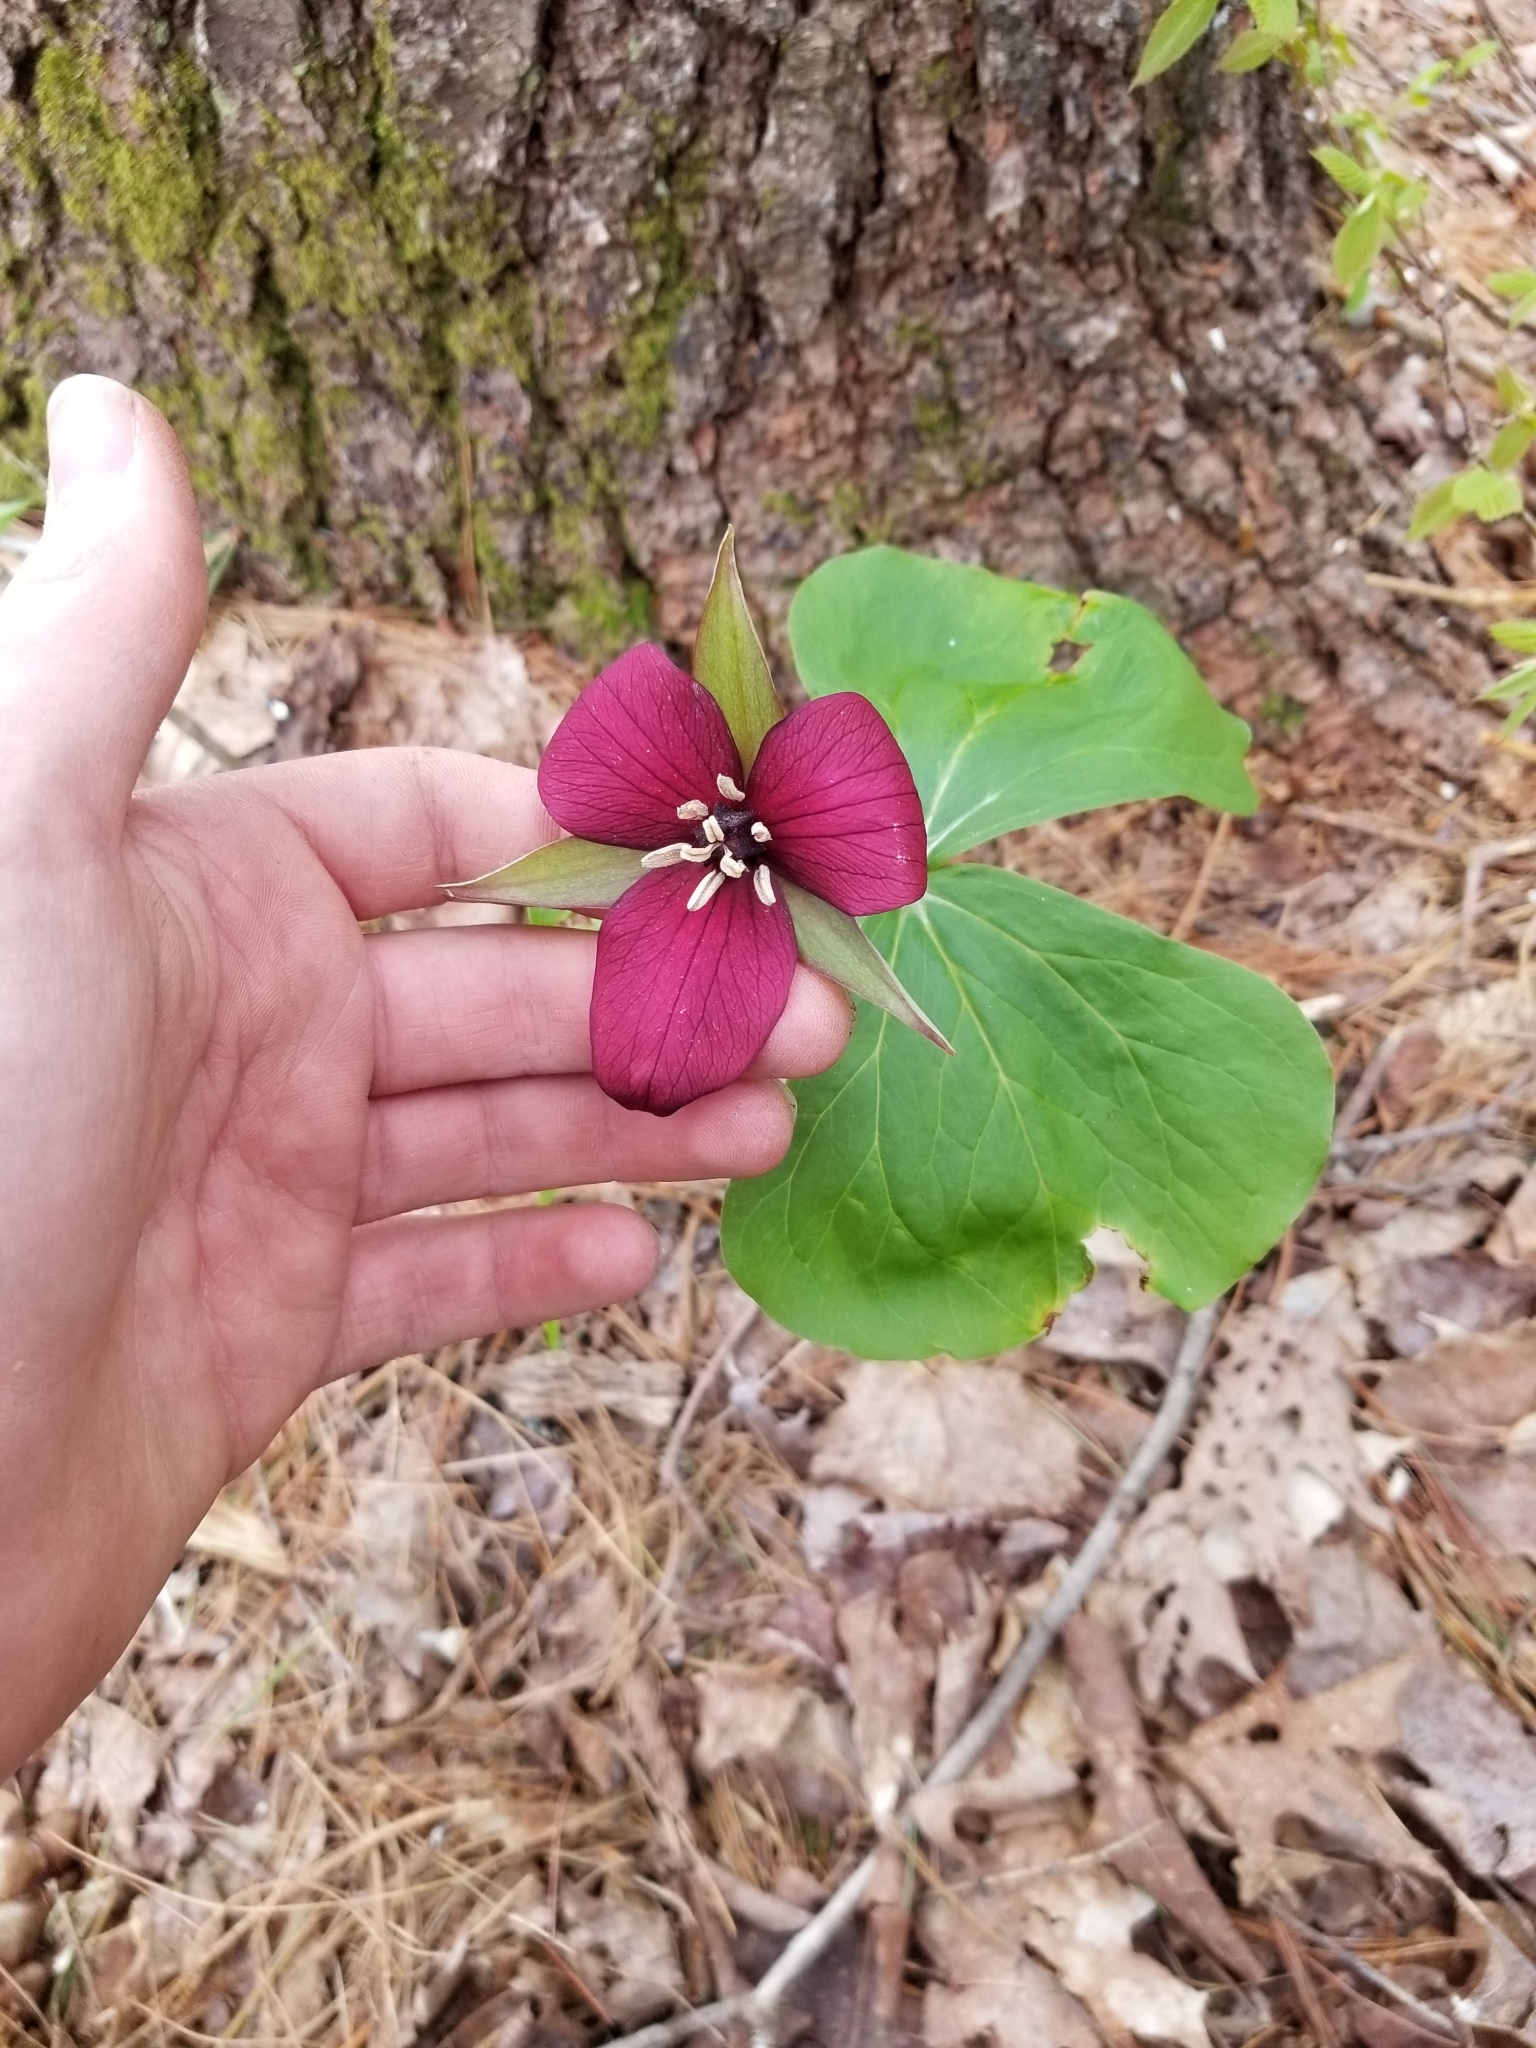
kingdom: Plantae
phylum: Tracheophyta
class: Liliopsida
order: Liliales
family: Melanthiaceae
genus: Trillium
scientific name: Trillium erectum
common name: Purple trillium
